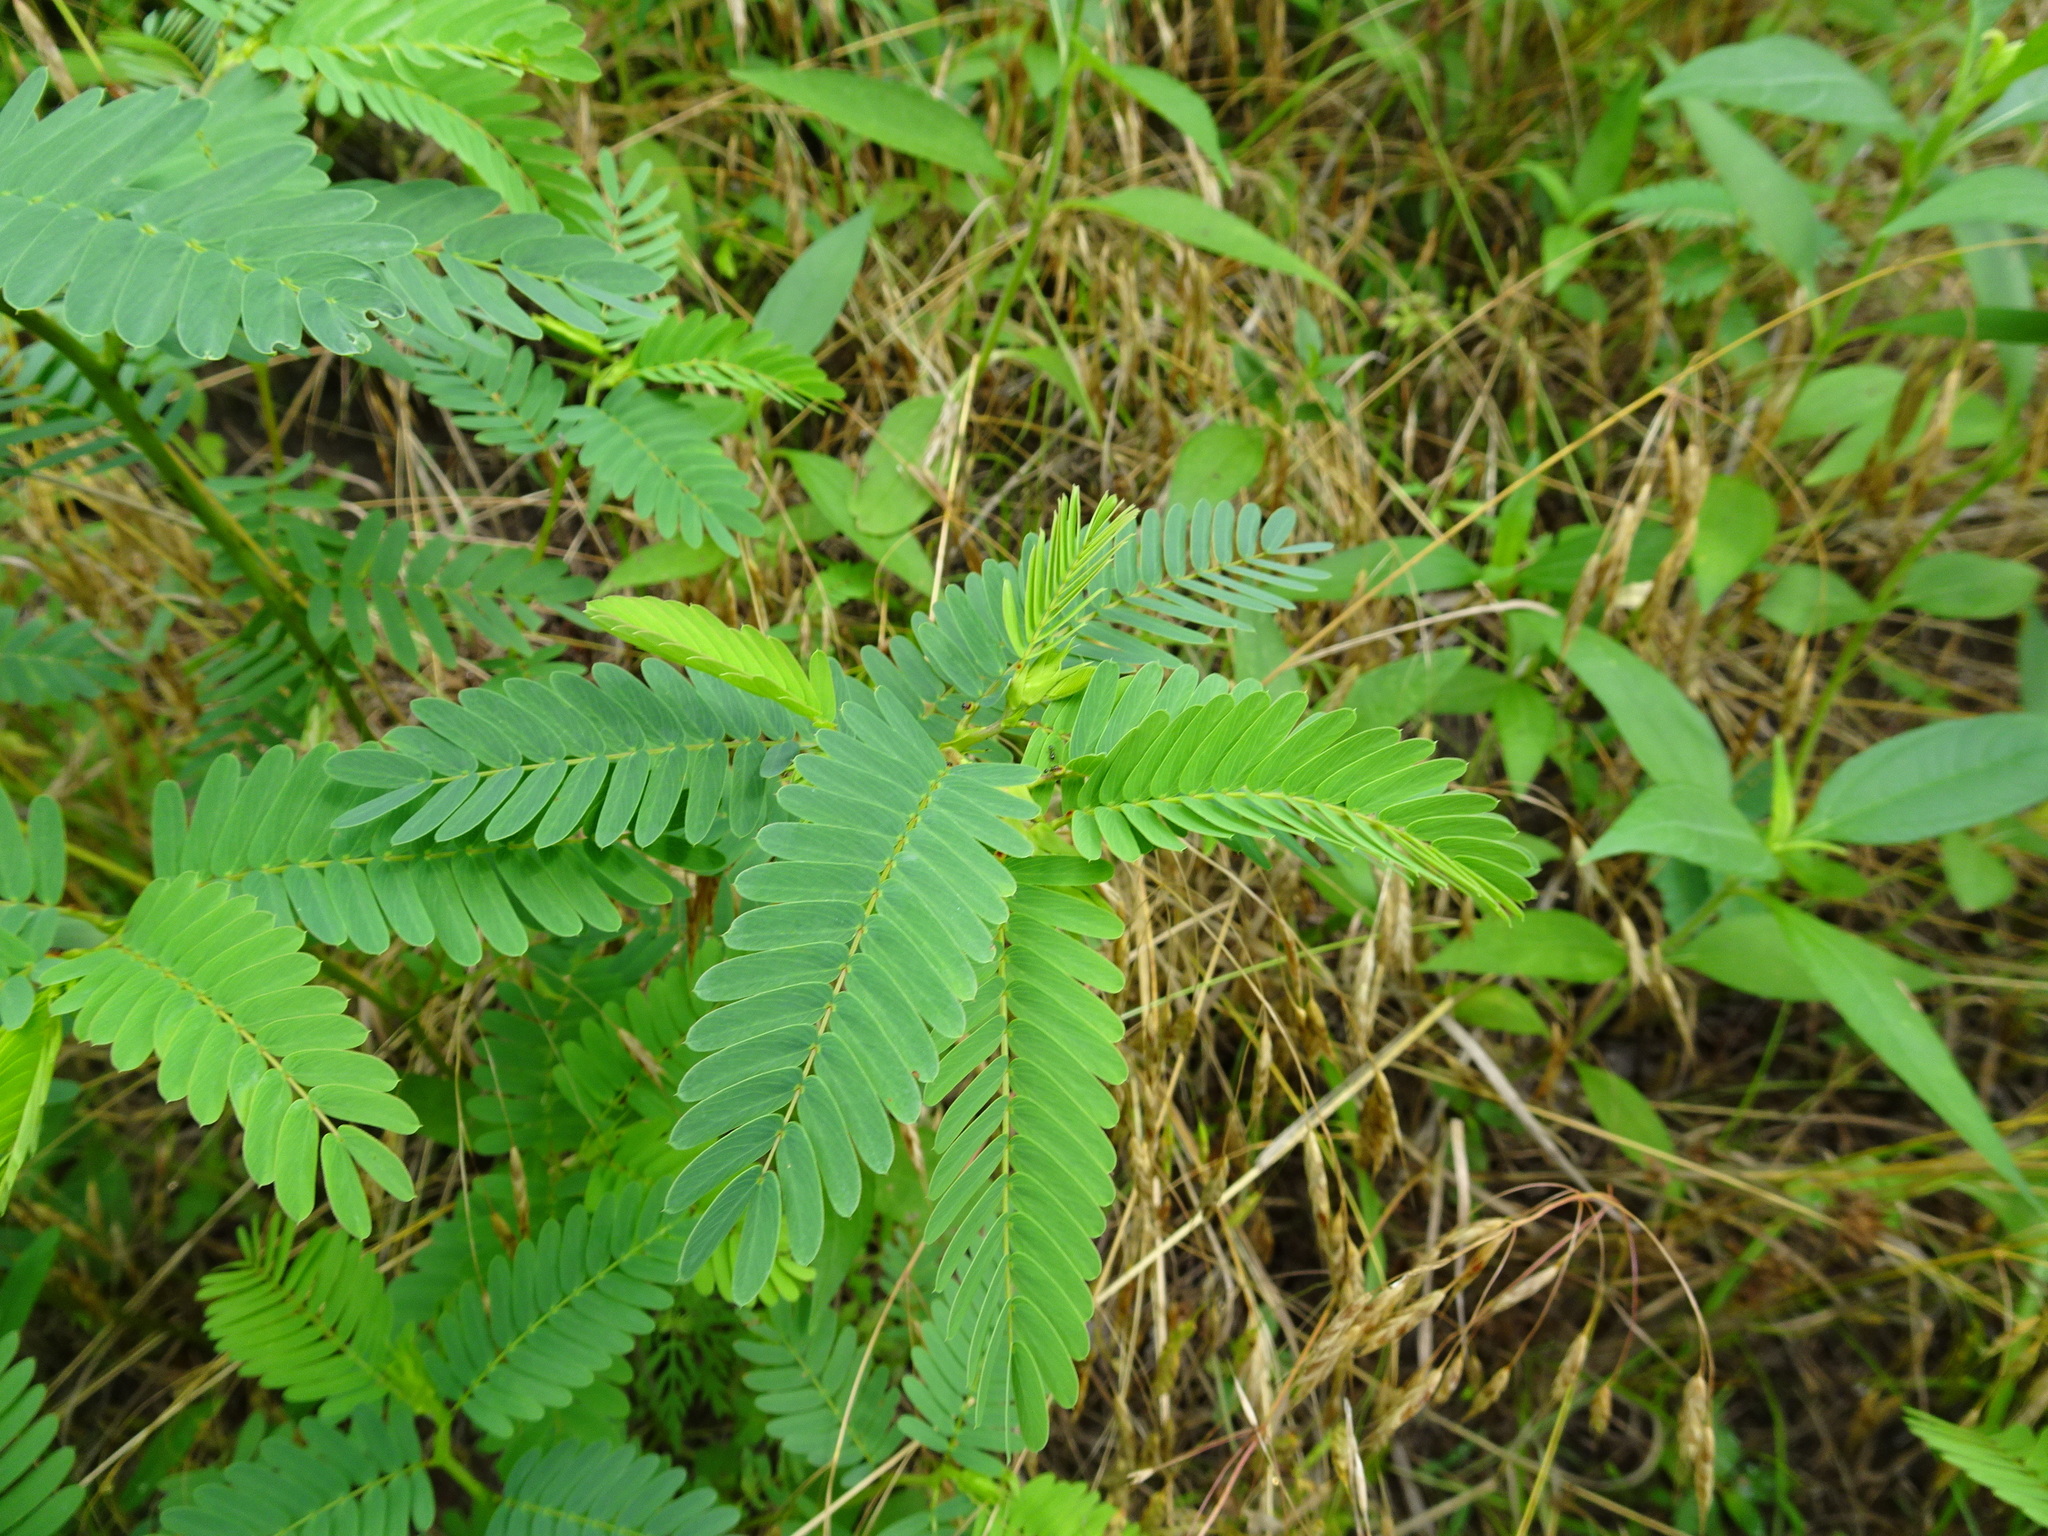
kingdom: Plantae
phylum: Tracheophyta
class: Magnoliopsida
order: Fabales
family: Fabaceae
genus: Chamaecrista
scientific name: Chamaecrista fasciculata
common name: Golden cassia
